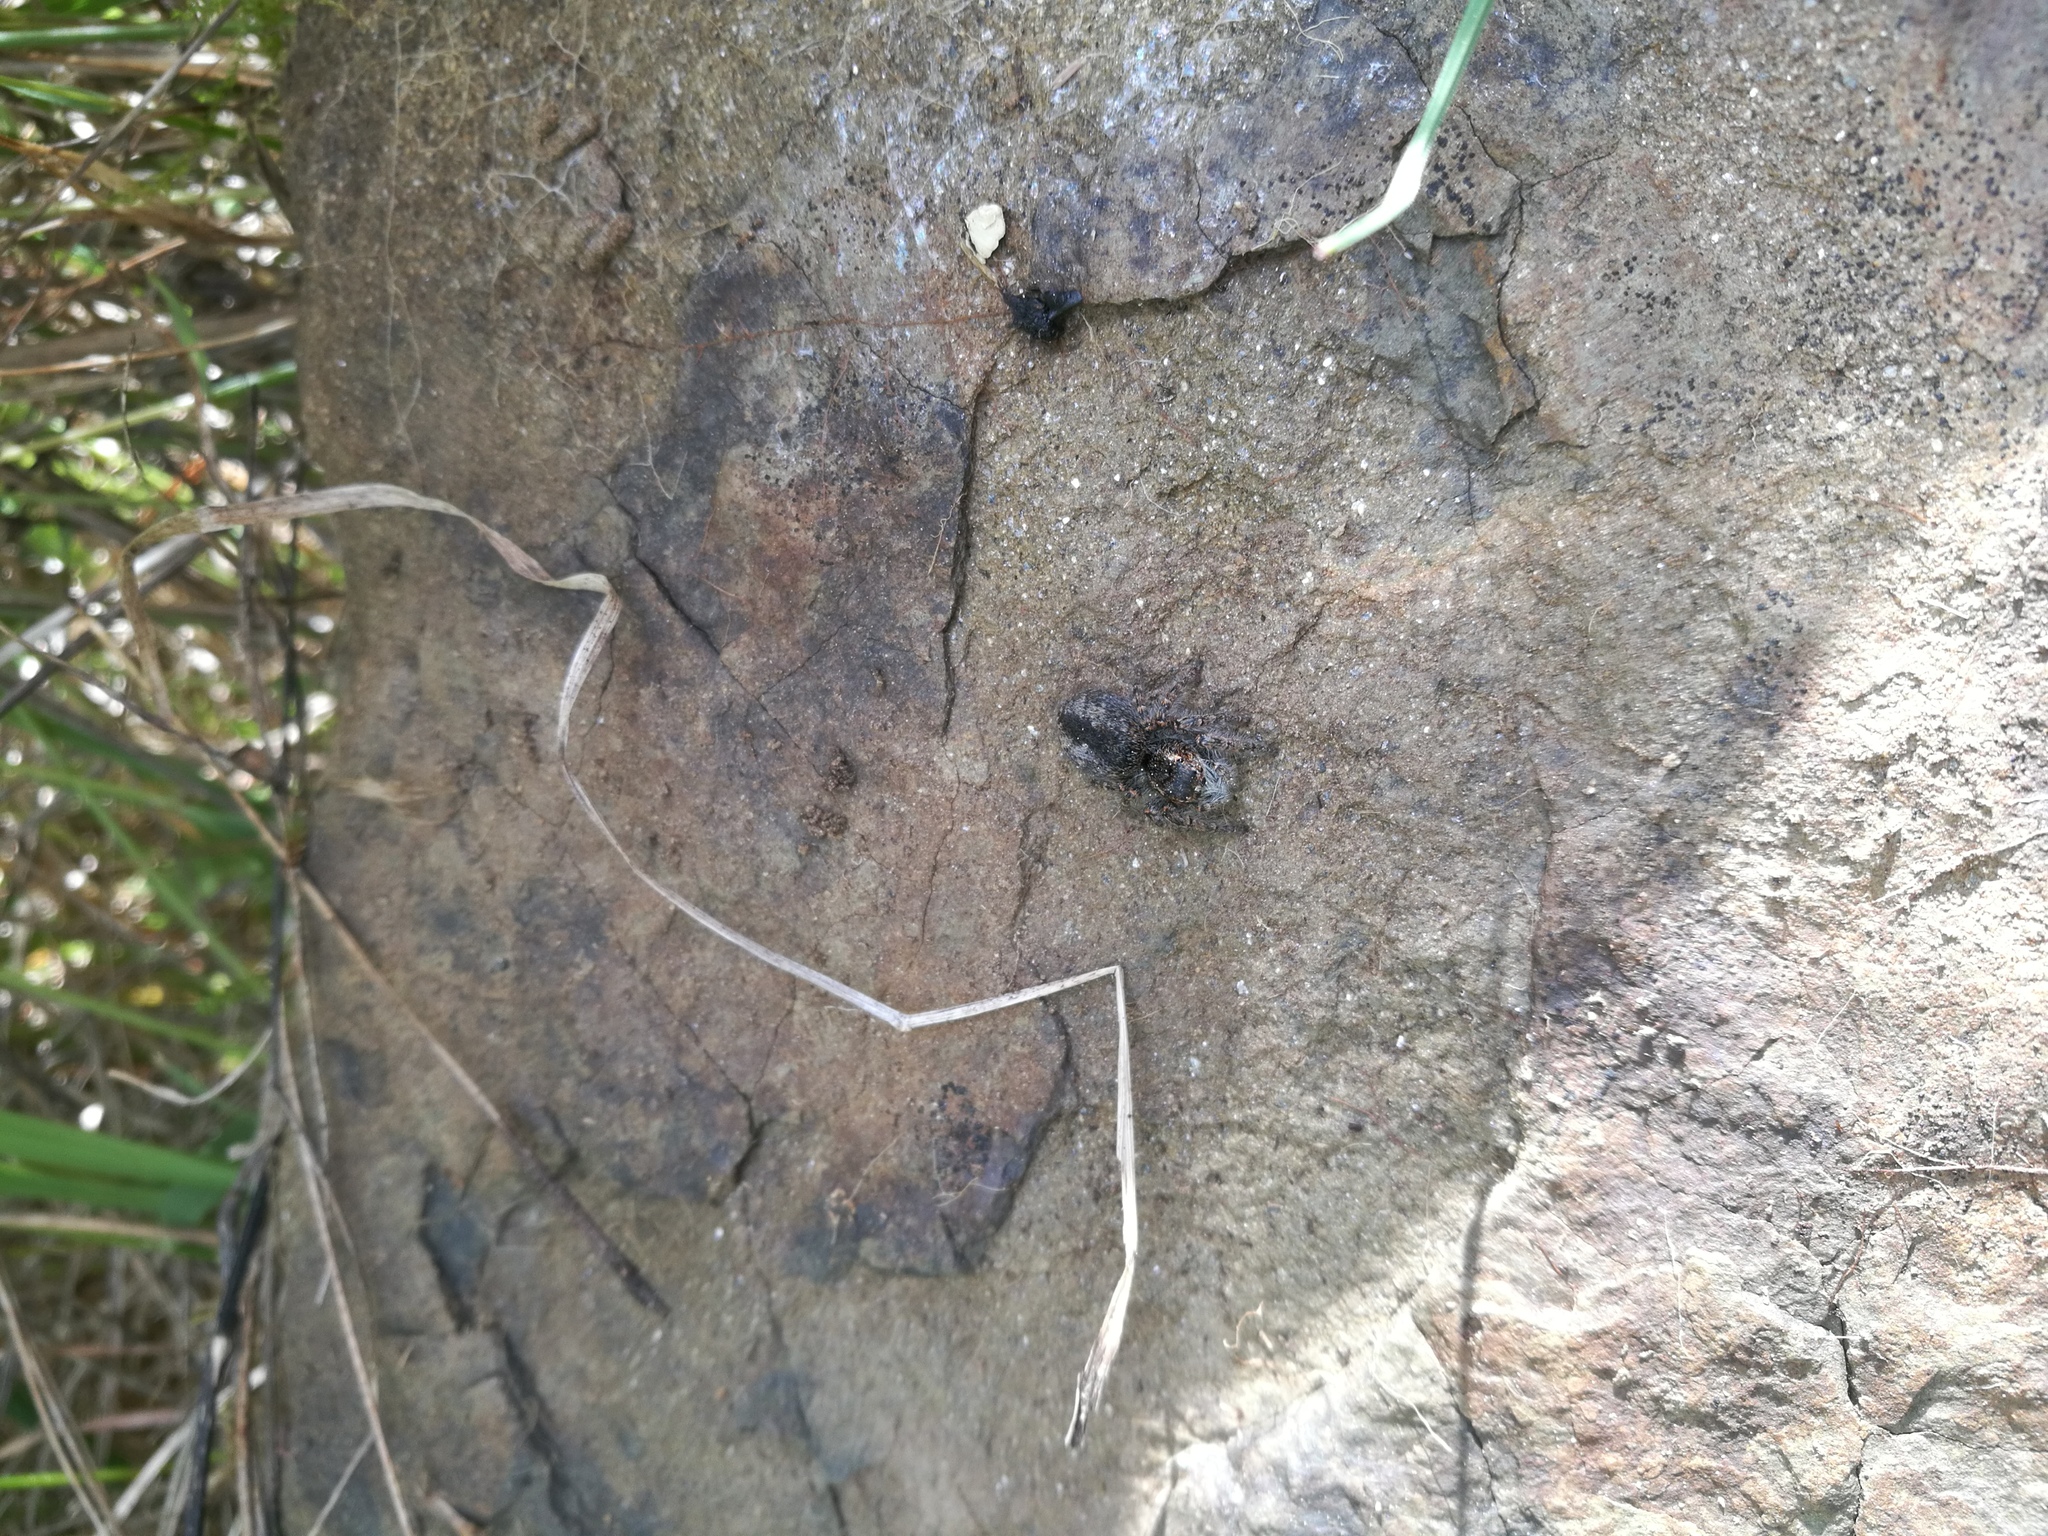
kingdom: Animalia
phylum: Arthropoda
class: Arachnida
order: Araneae
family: Salticidae
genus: Philaeus
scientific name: Philaeus chrysops
